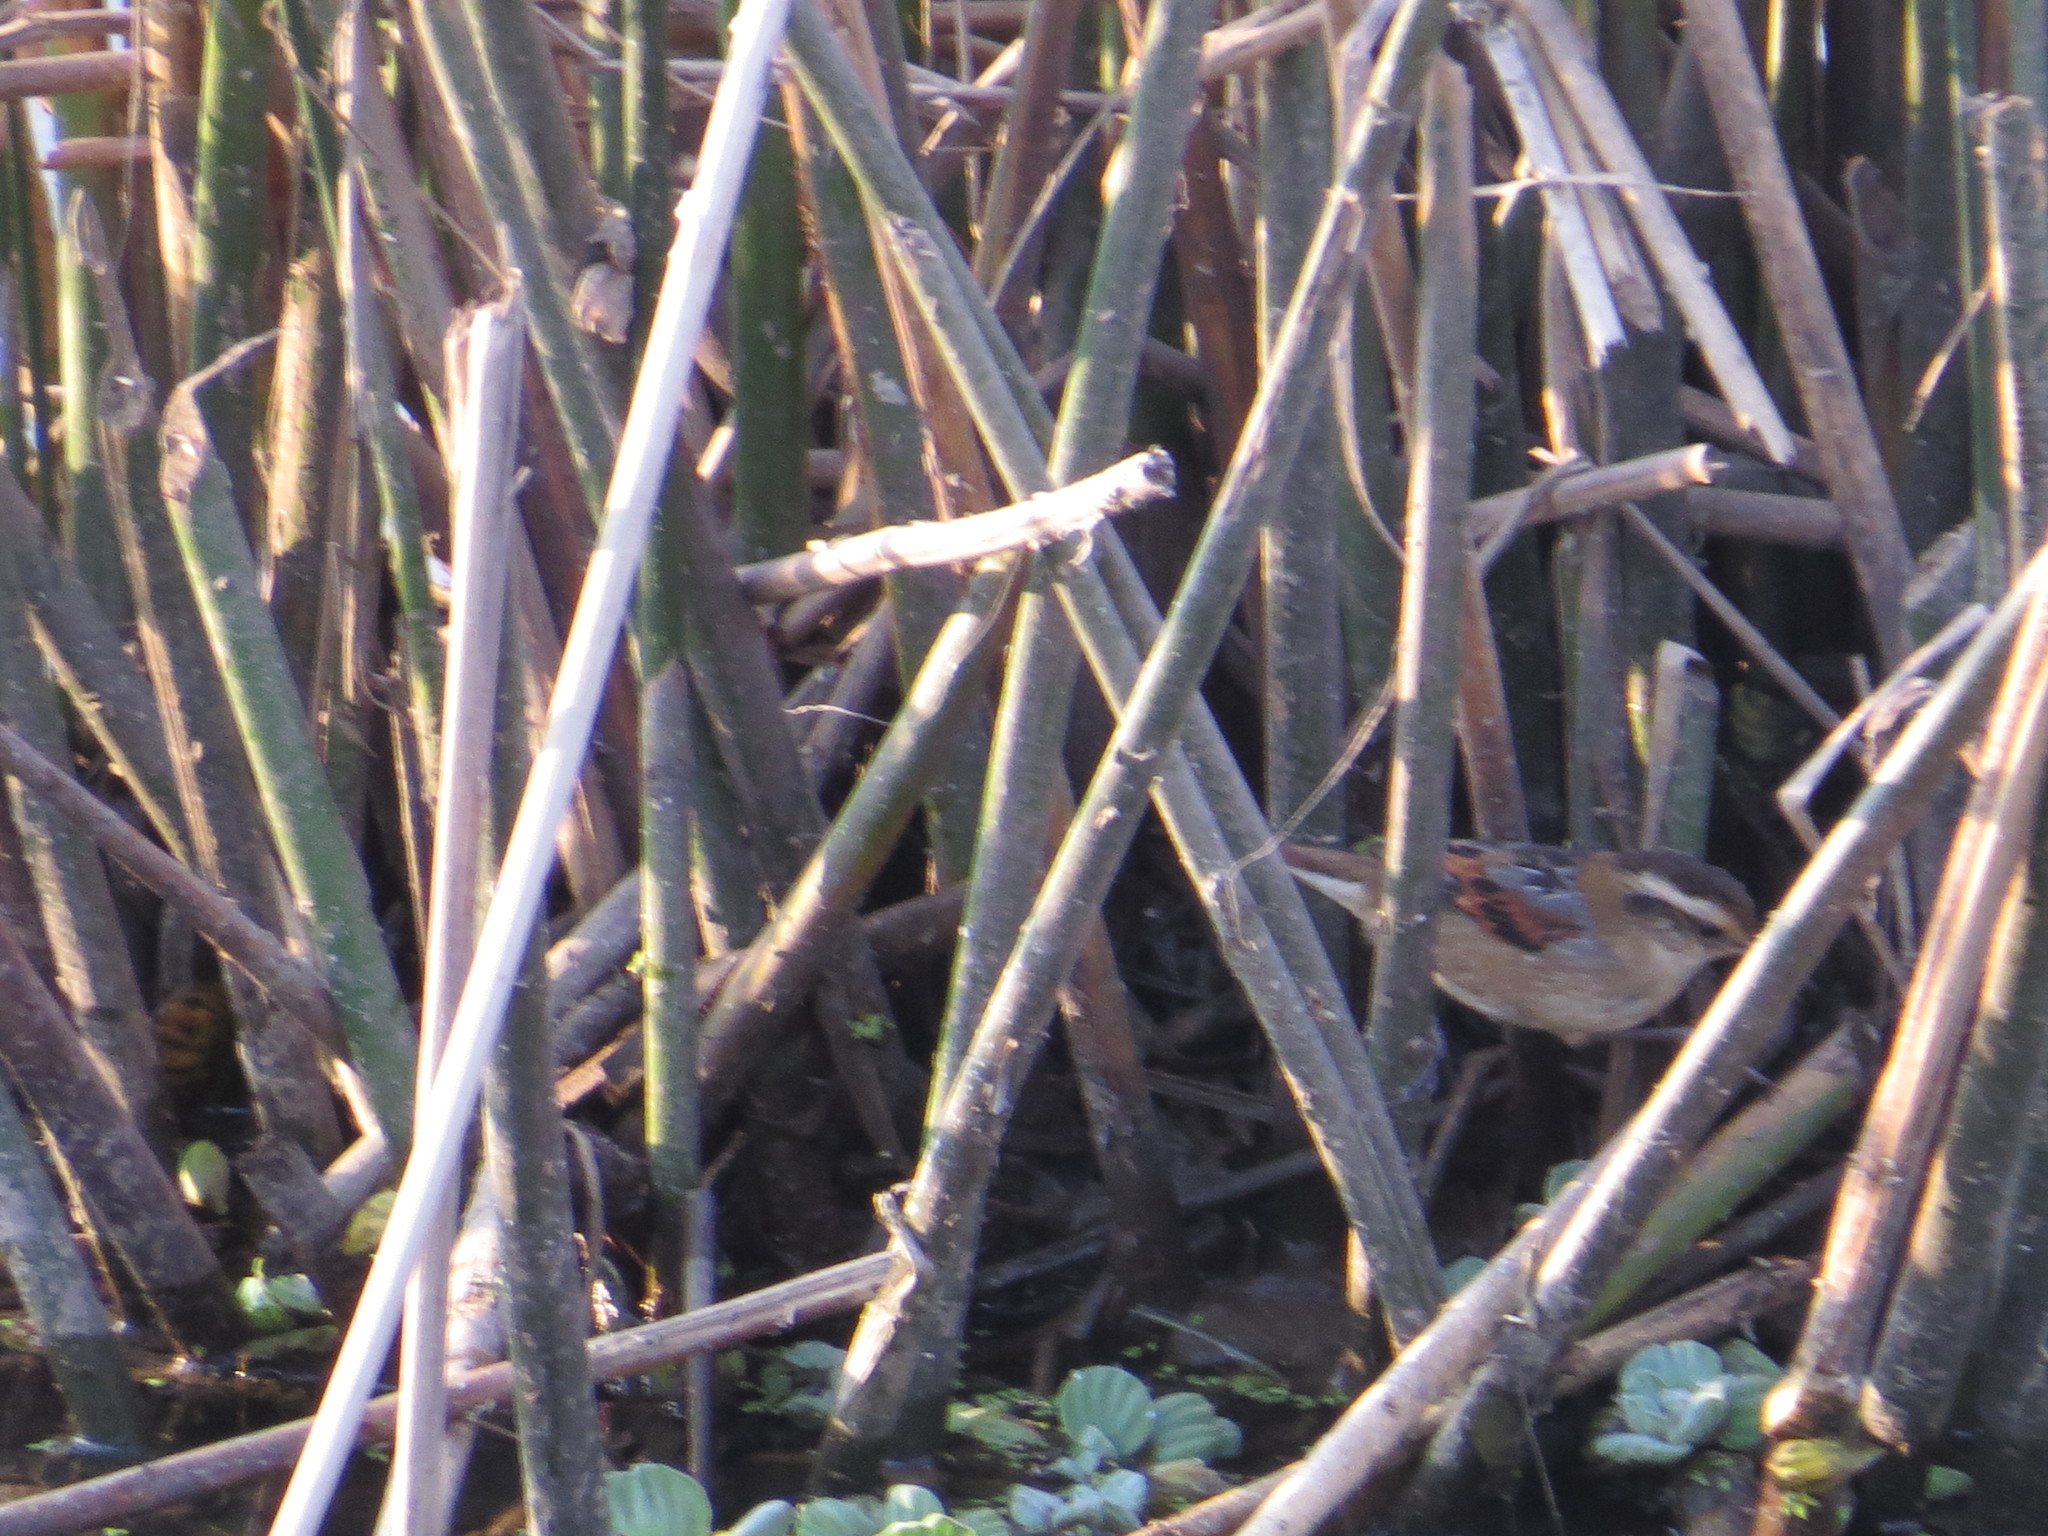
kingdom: Animalia
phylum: Chordata
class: Aves
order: Passeriformes
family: Furnariidae
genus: Phleocryptes
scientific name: Phleocryptes melanops
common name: Wren-like rushbird
